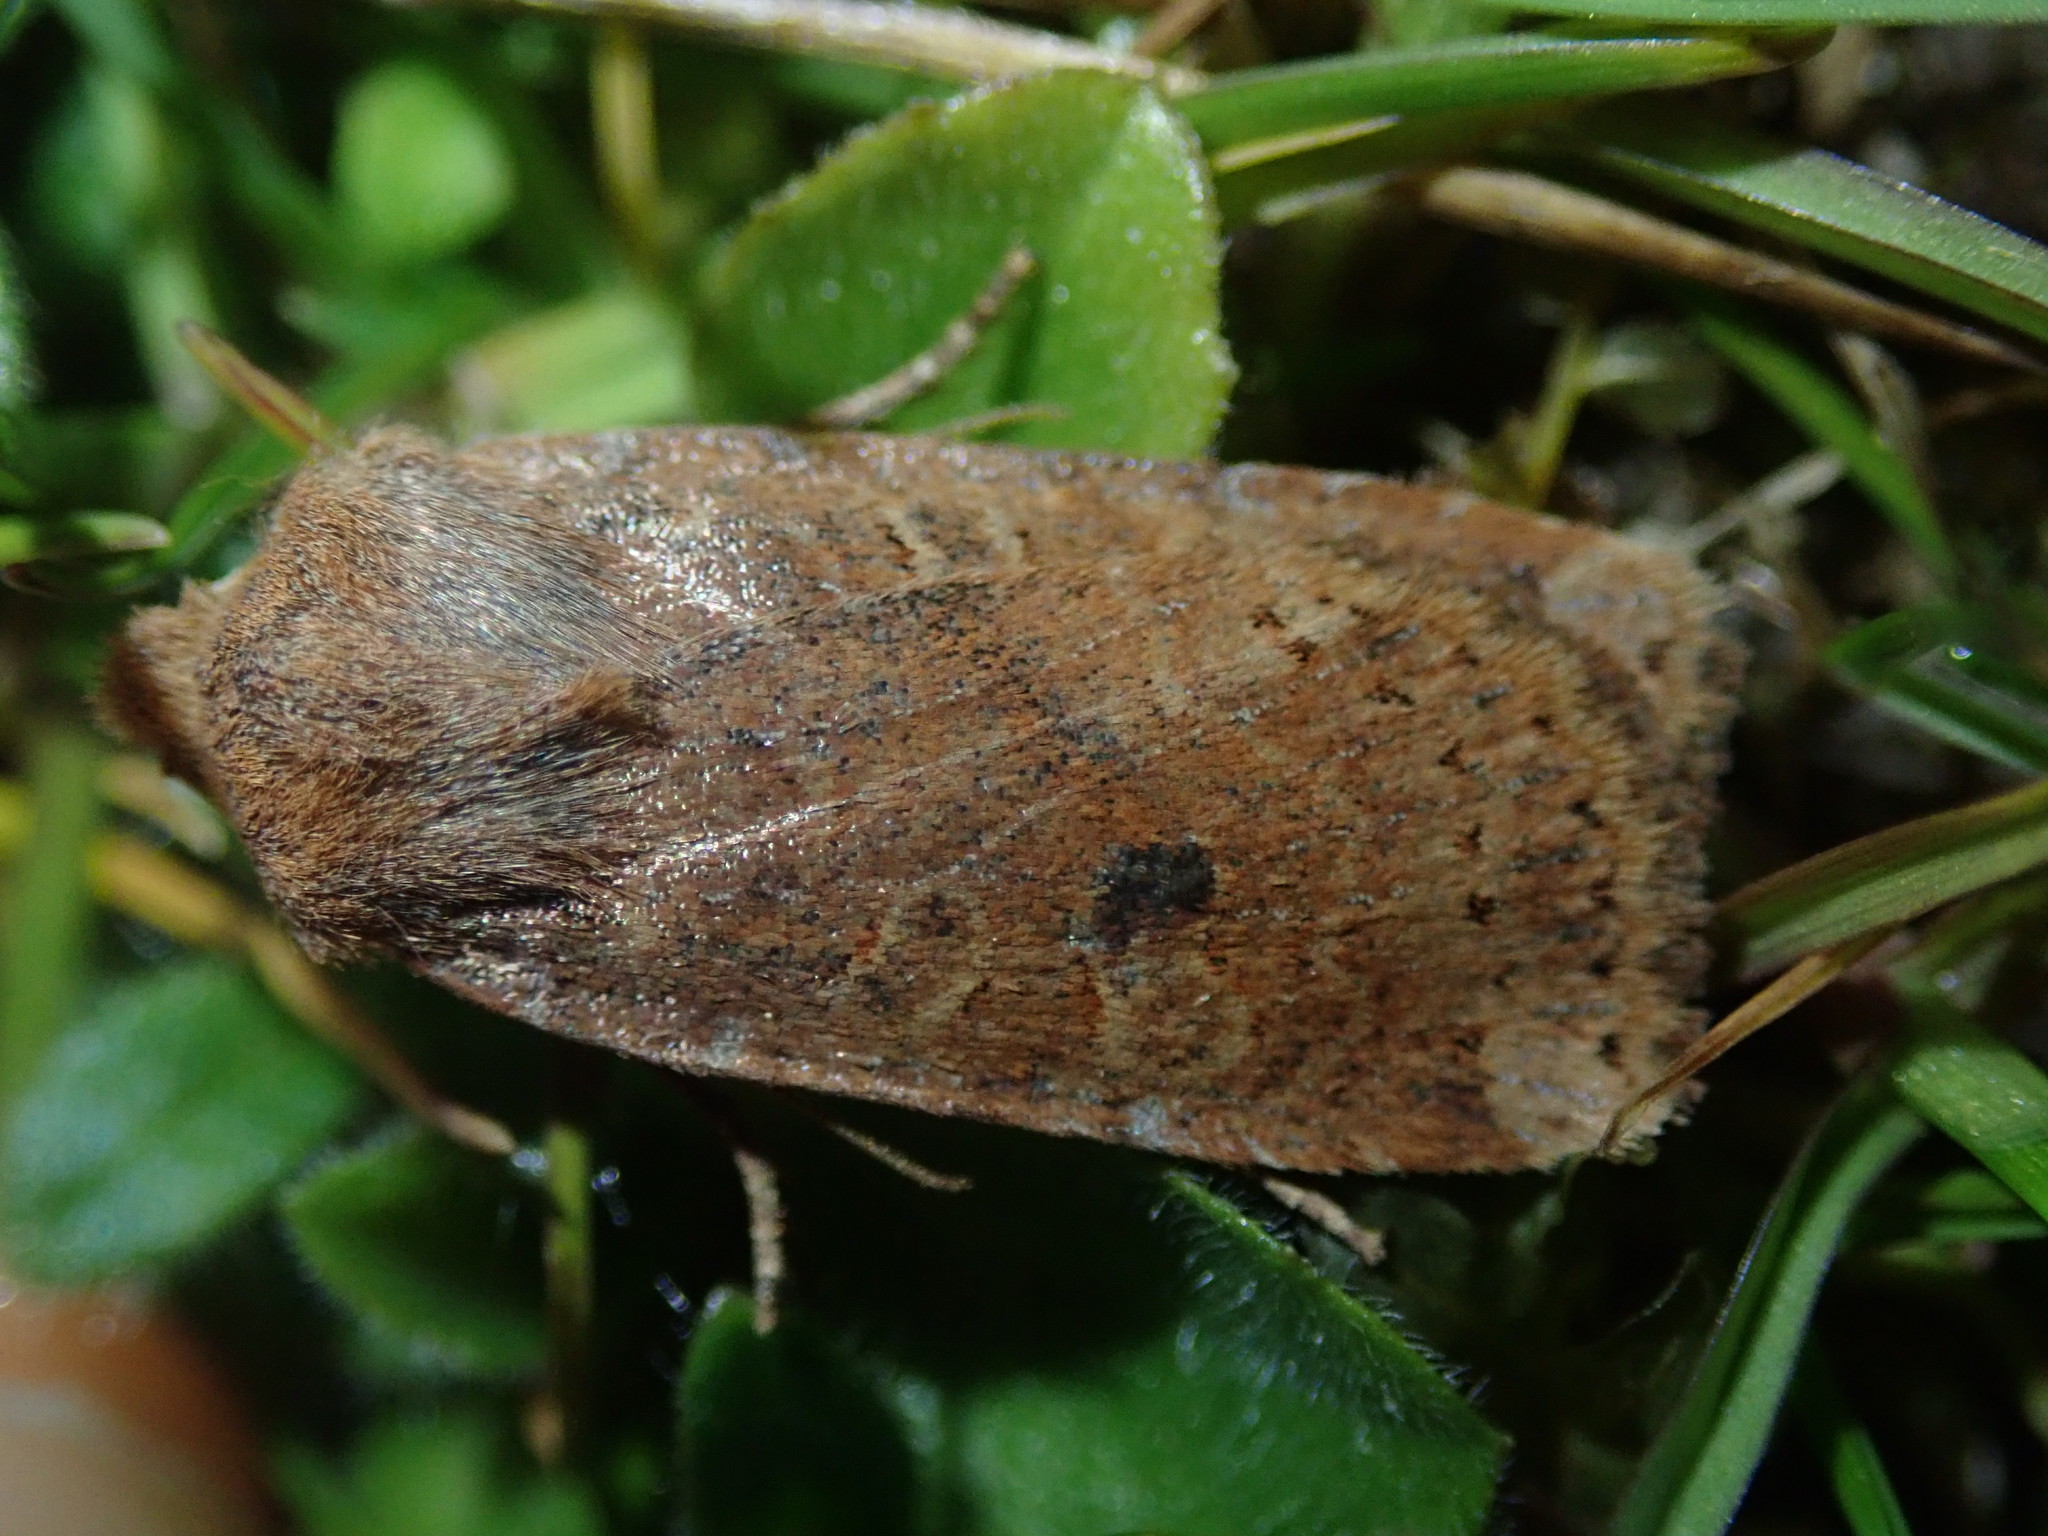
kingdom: Animalia
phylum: Arthropoda
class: Insecta
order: Lepidoptera
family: Noctuidae
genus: Conistra
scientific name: Conistra vaccinii
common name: Chestnut
